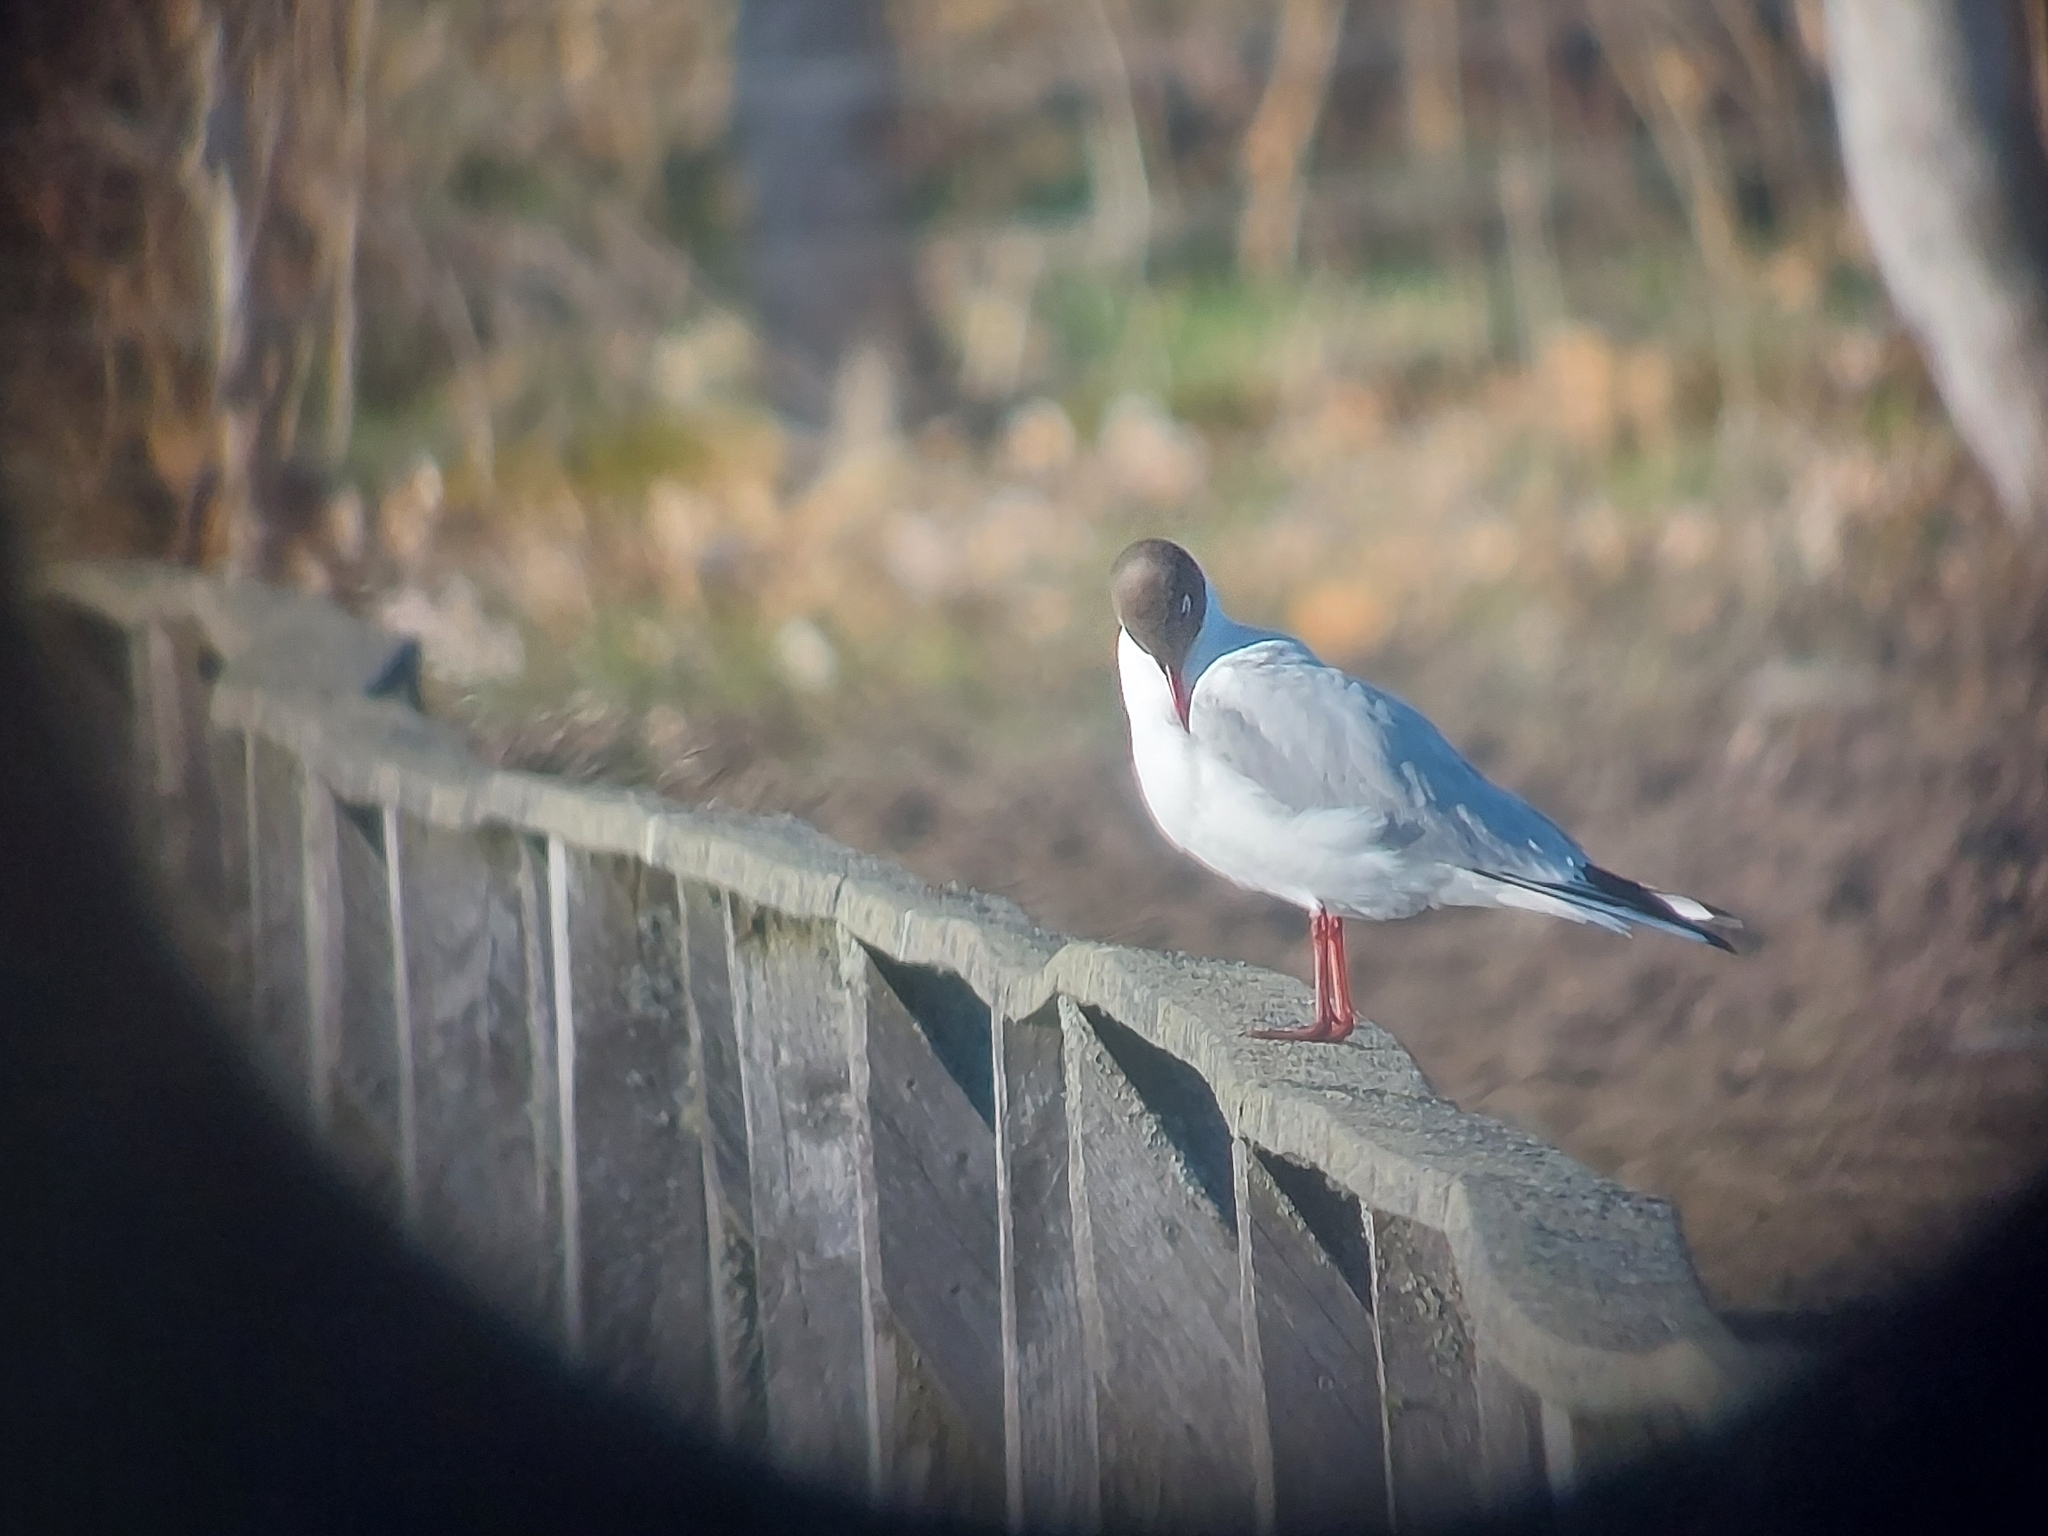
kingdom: Animalia
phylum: Chordata
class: Aves
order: Charadriiformes
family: Laridae
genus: Chroicocephalus
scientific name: Chroicocephalus ridibundus
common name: Black-headed gull
